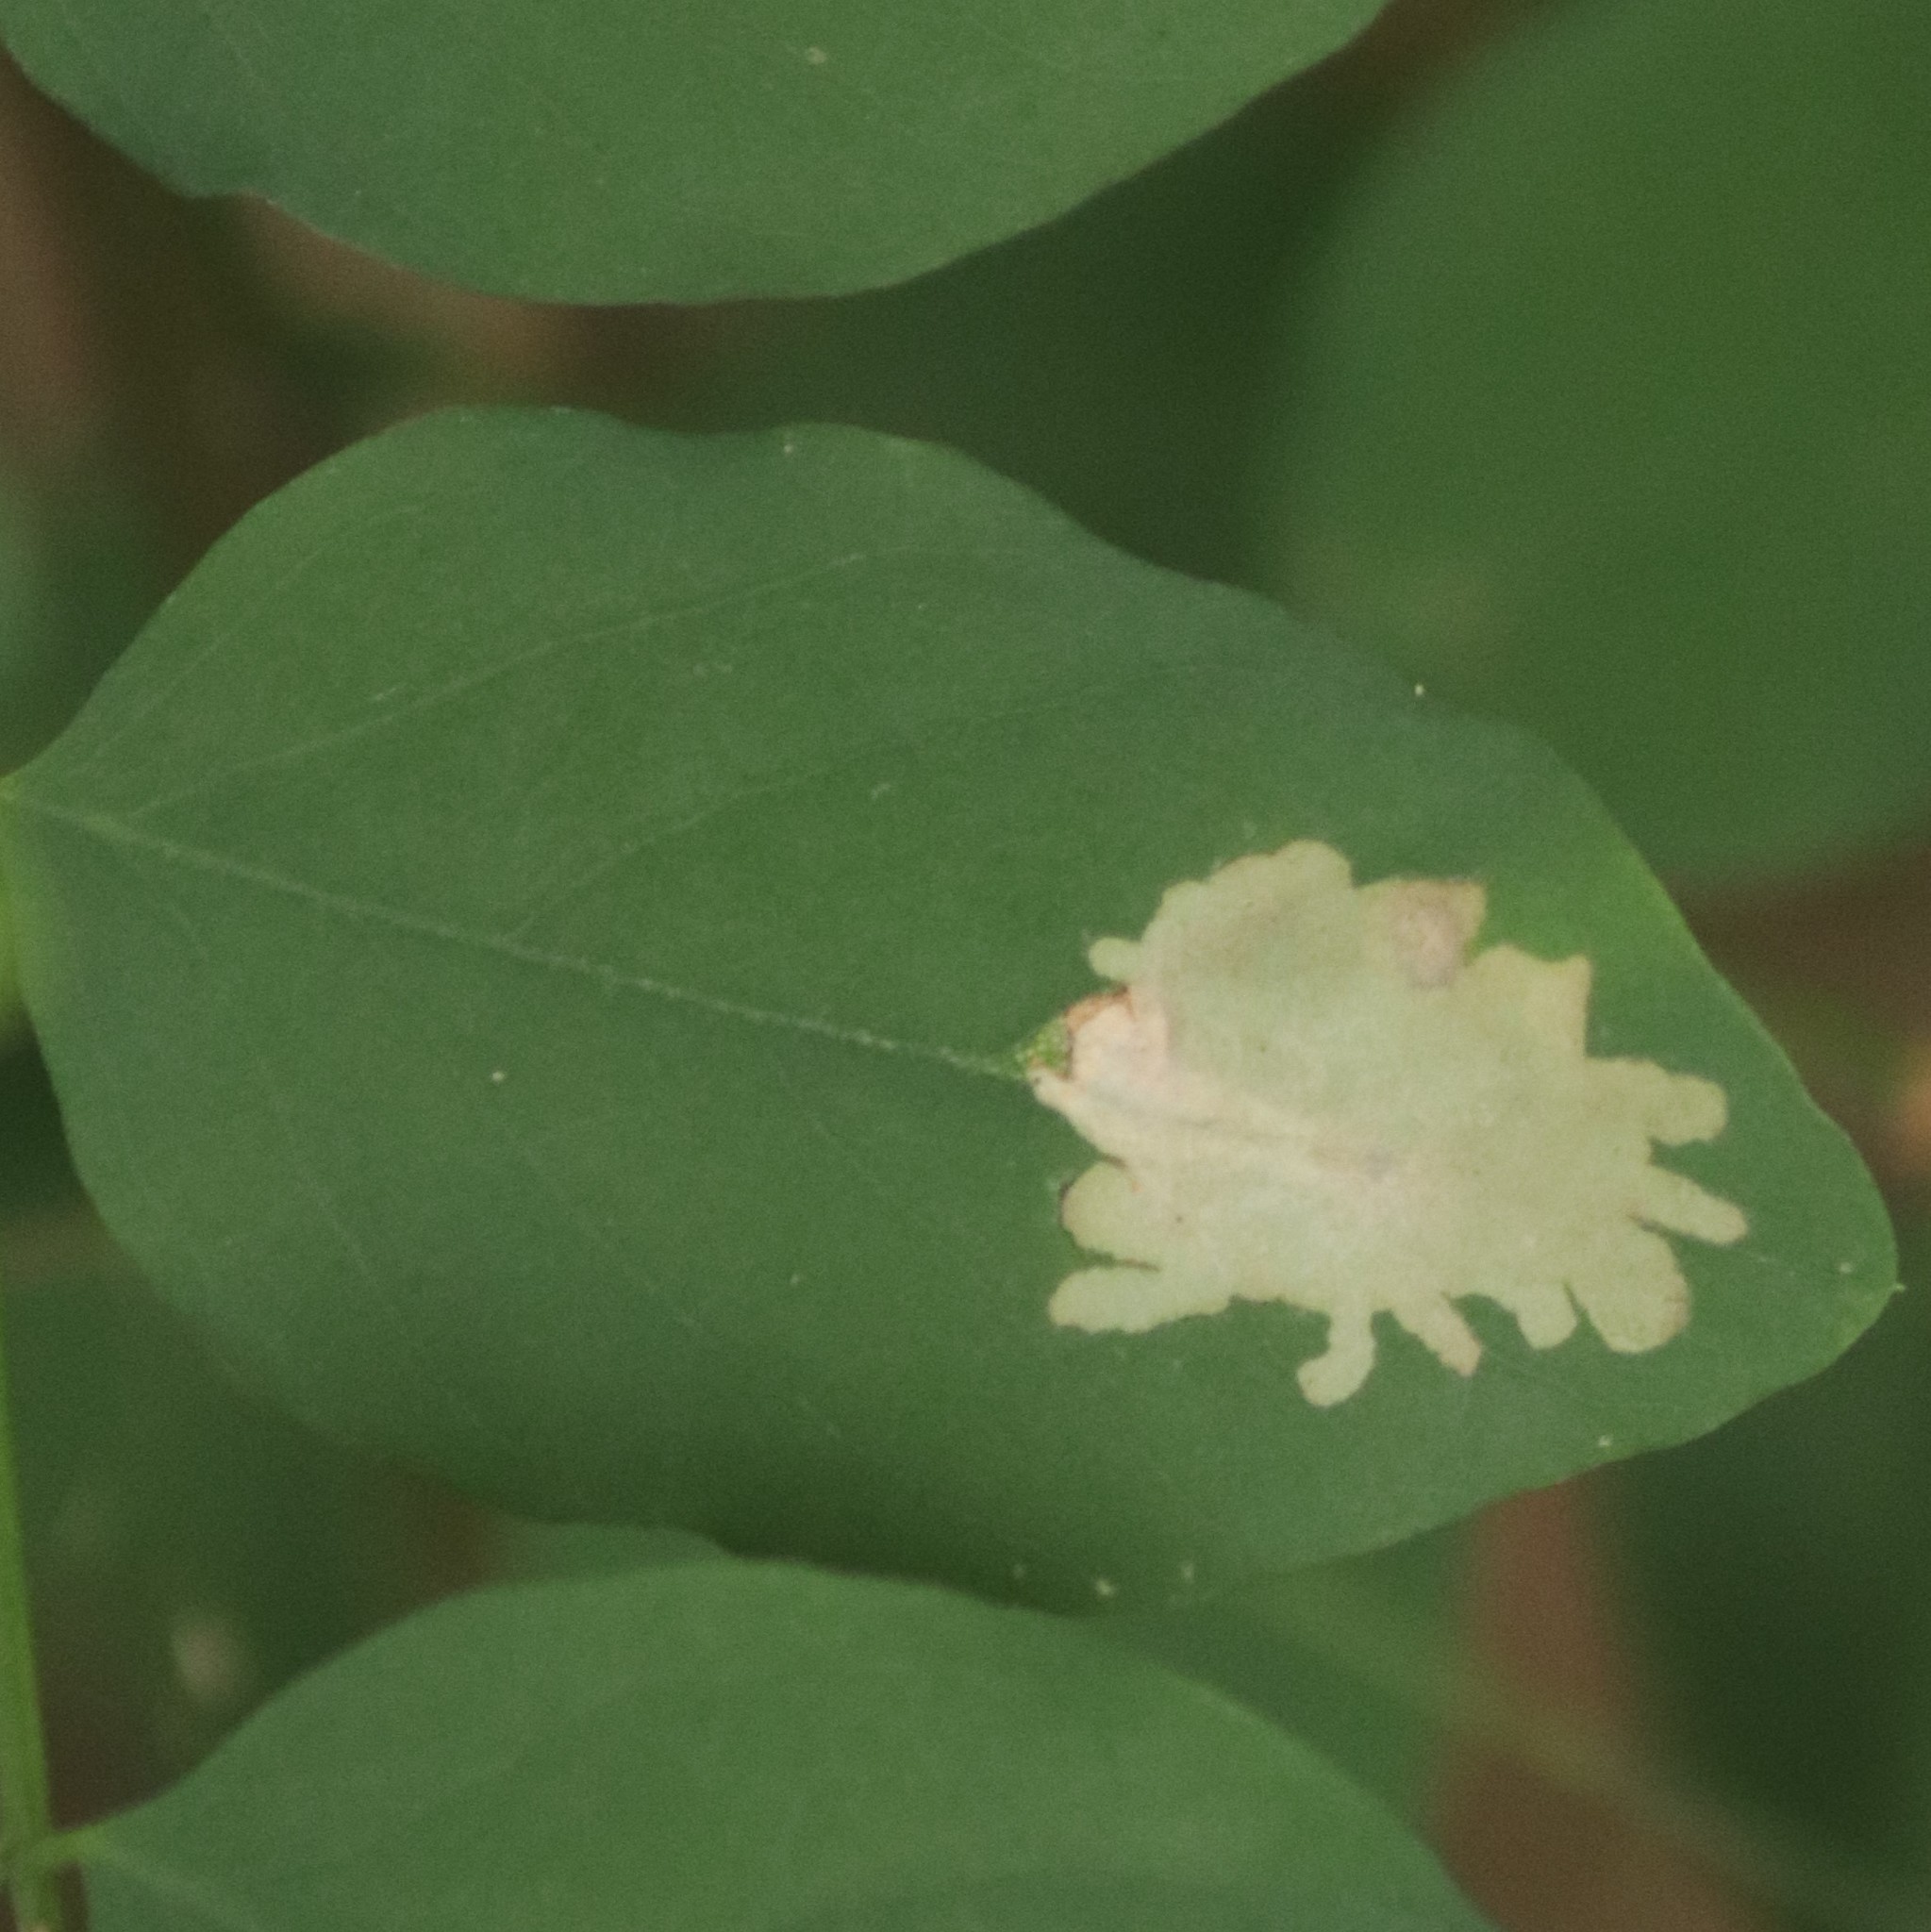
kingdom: Animalia
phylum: Arthropoda
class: Insecta
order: Lepidoptera
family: Gracillariidae
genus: Parectopa
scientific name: Parectopa robiniella
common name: Locust digitate leafminer
